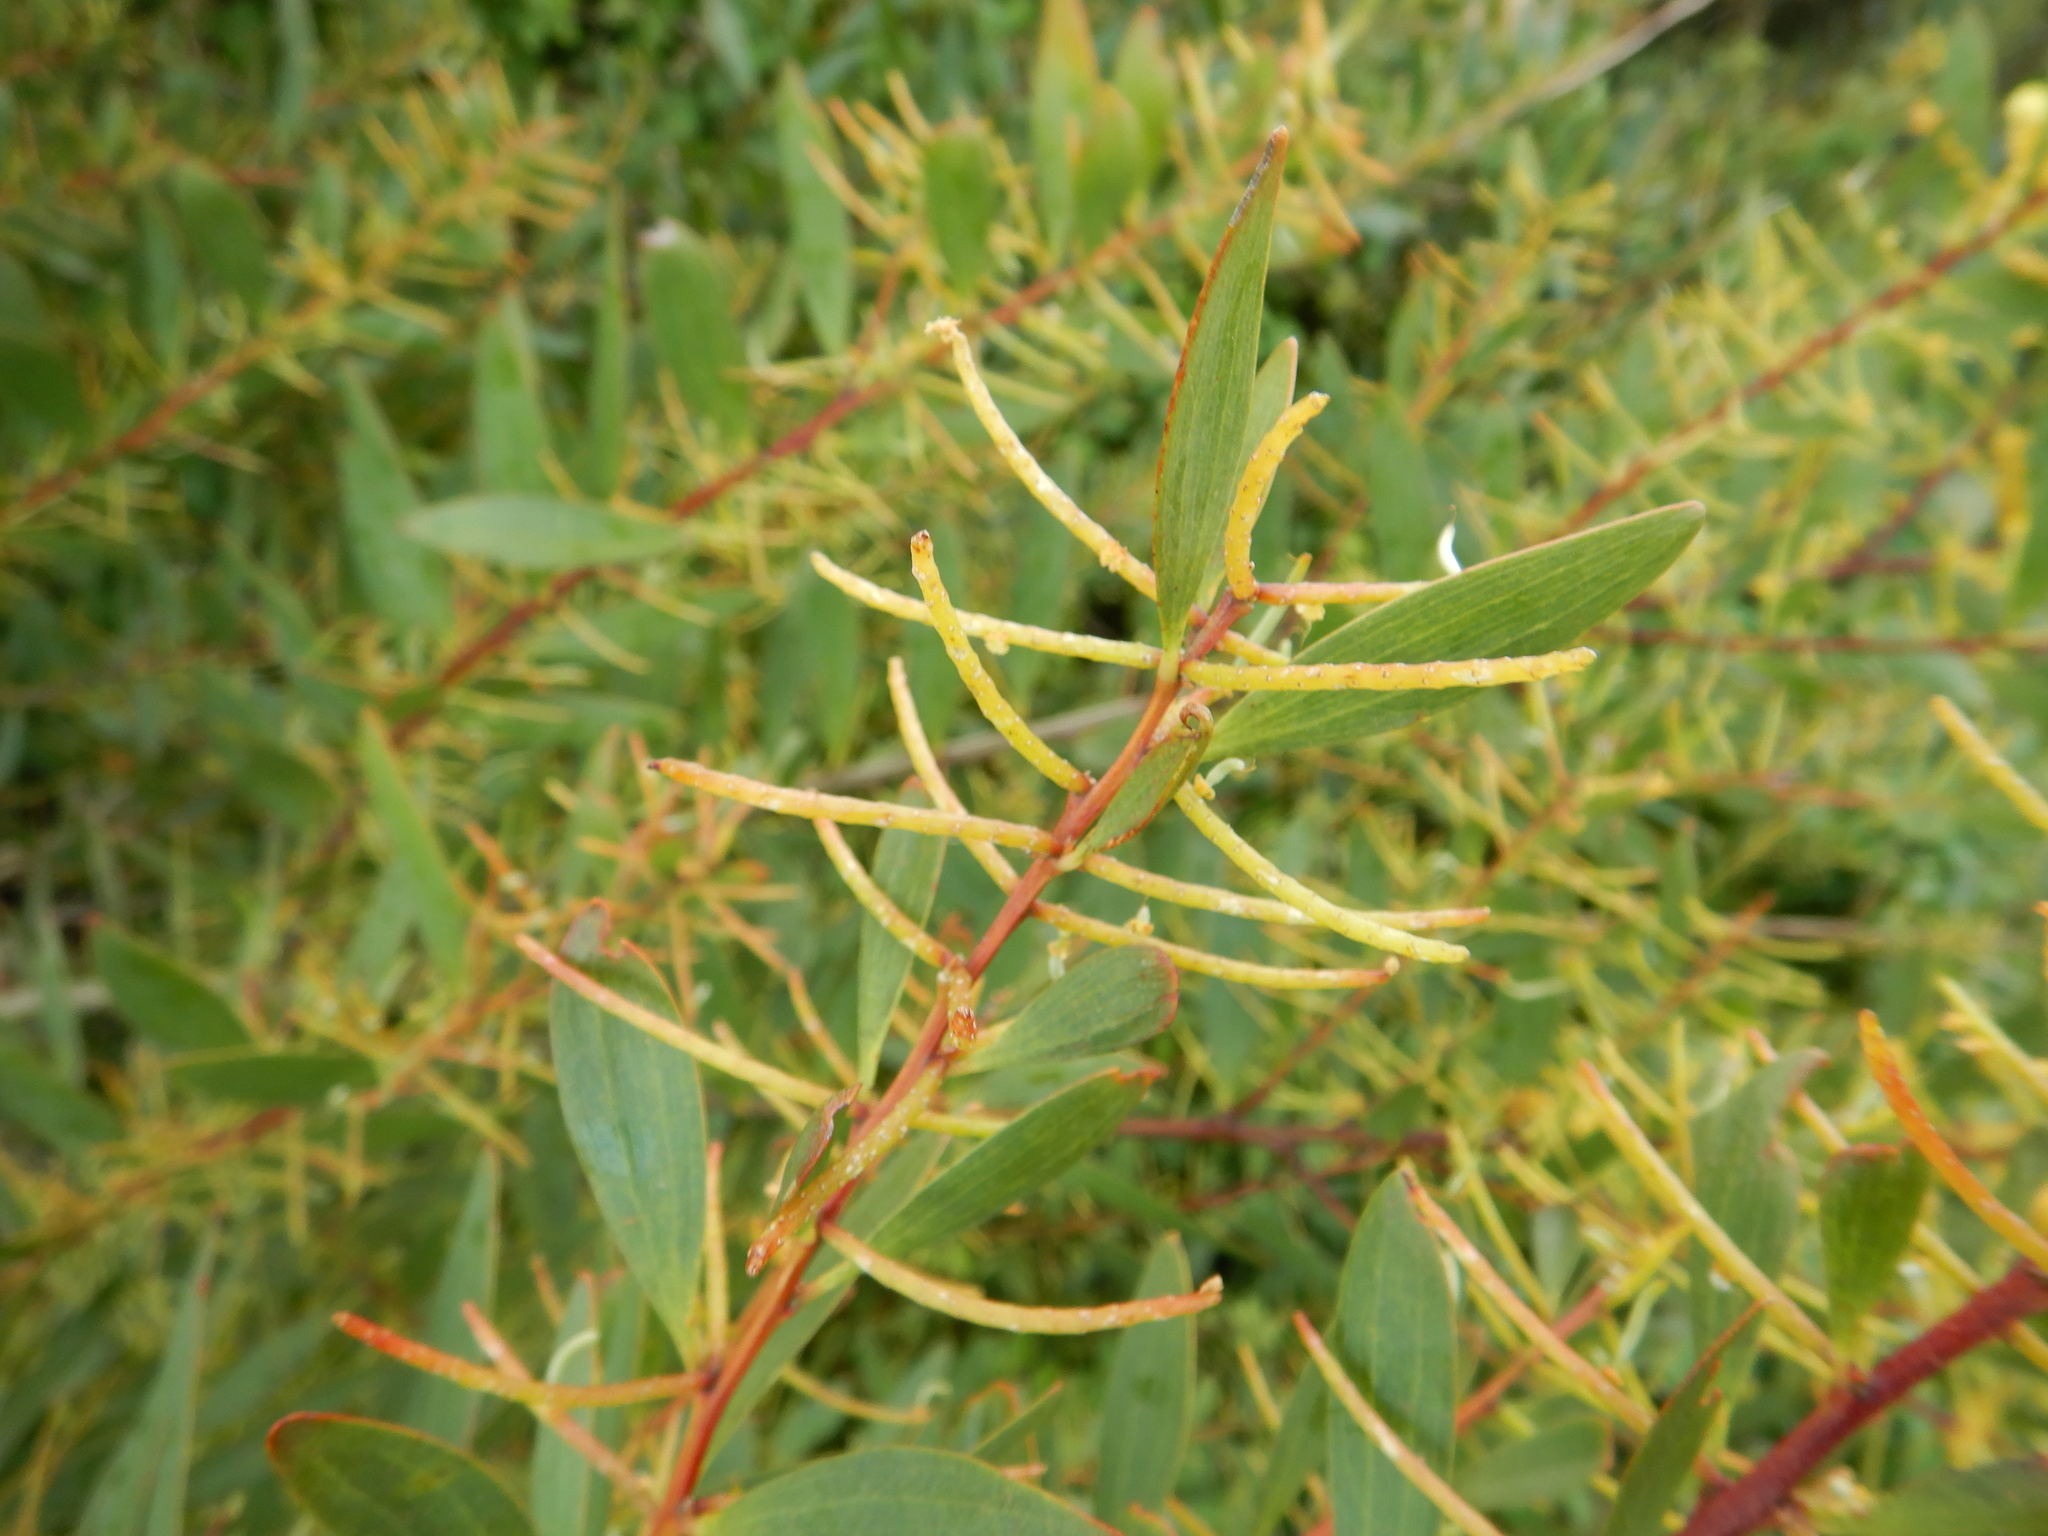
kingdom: Plantae
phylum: Tracheophyta
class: Magnoliopsida
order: Fabales
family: Fabaceae
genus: Acacia
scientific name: Acacia longifolia
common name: Sydney golden wattle
